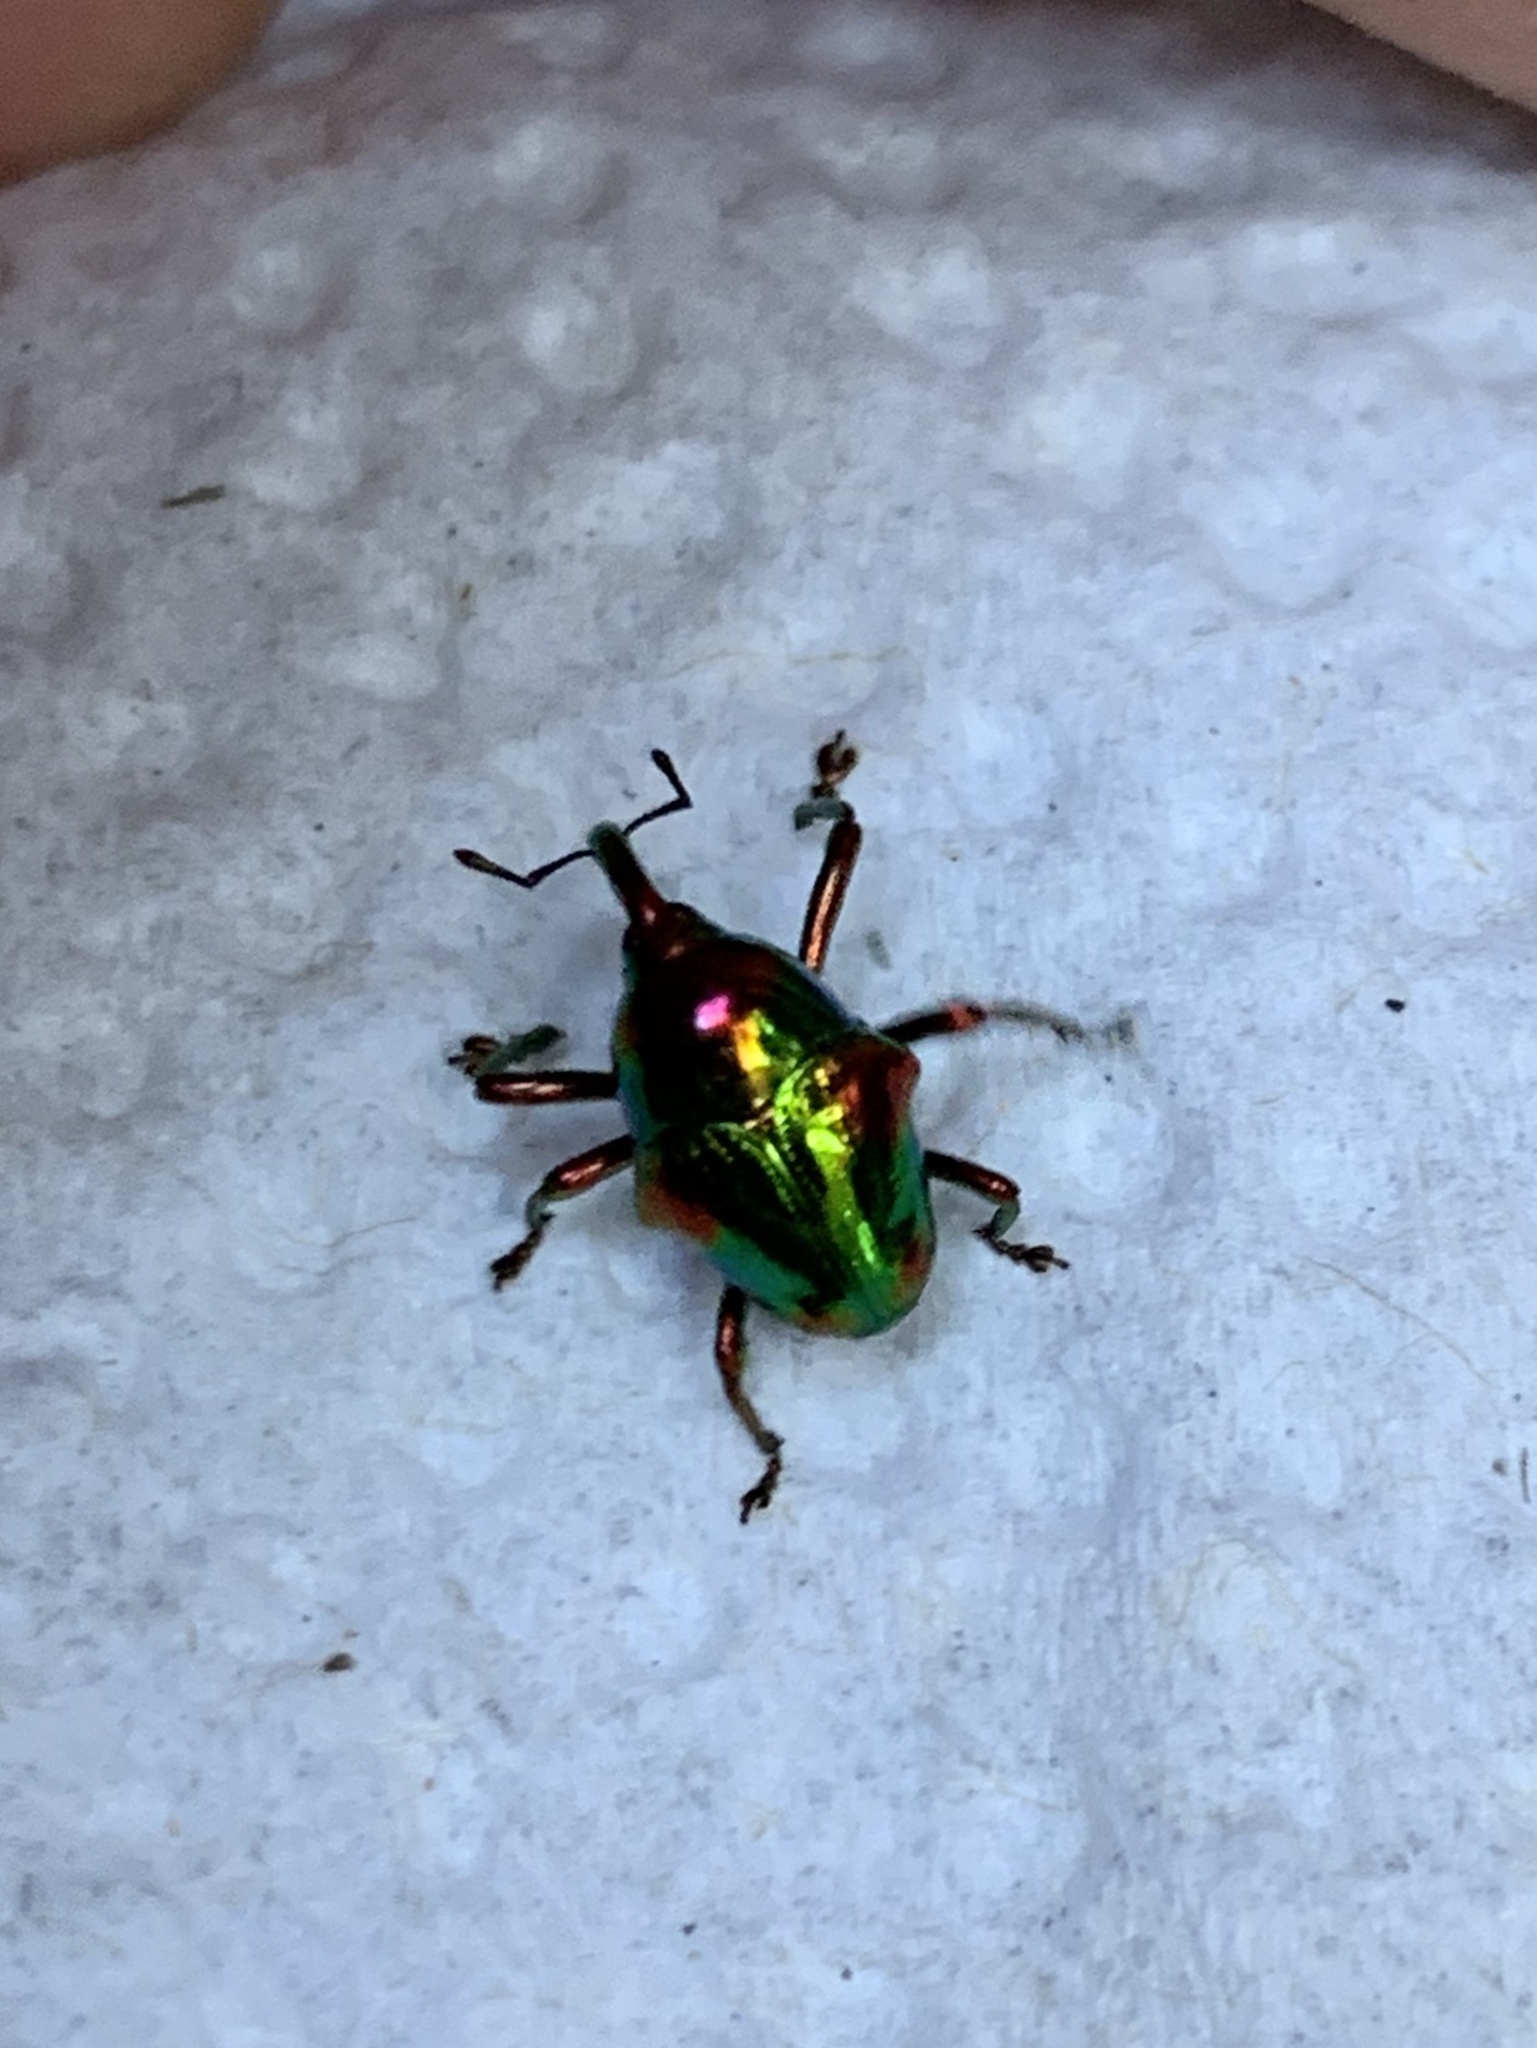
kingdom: Animalia
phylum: Arthropoda
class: Insecta
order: Coleoptera
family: Eurhynchidae
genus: Eurhinus
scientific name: Eurhinus magnificus
